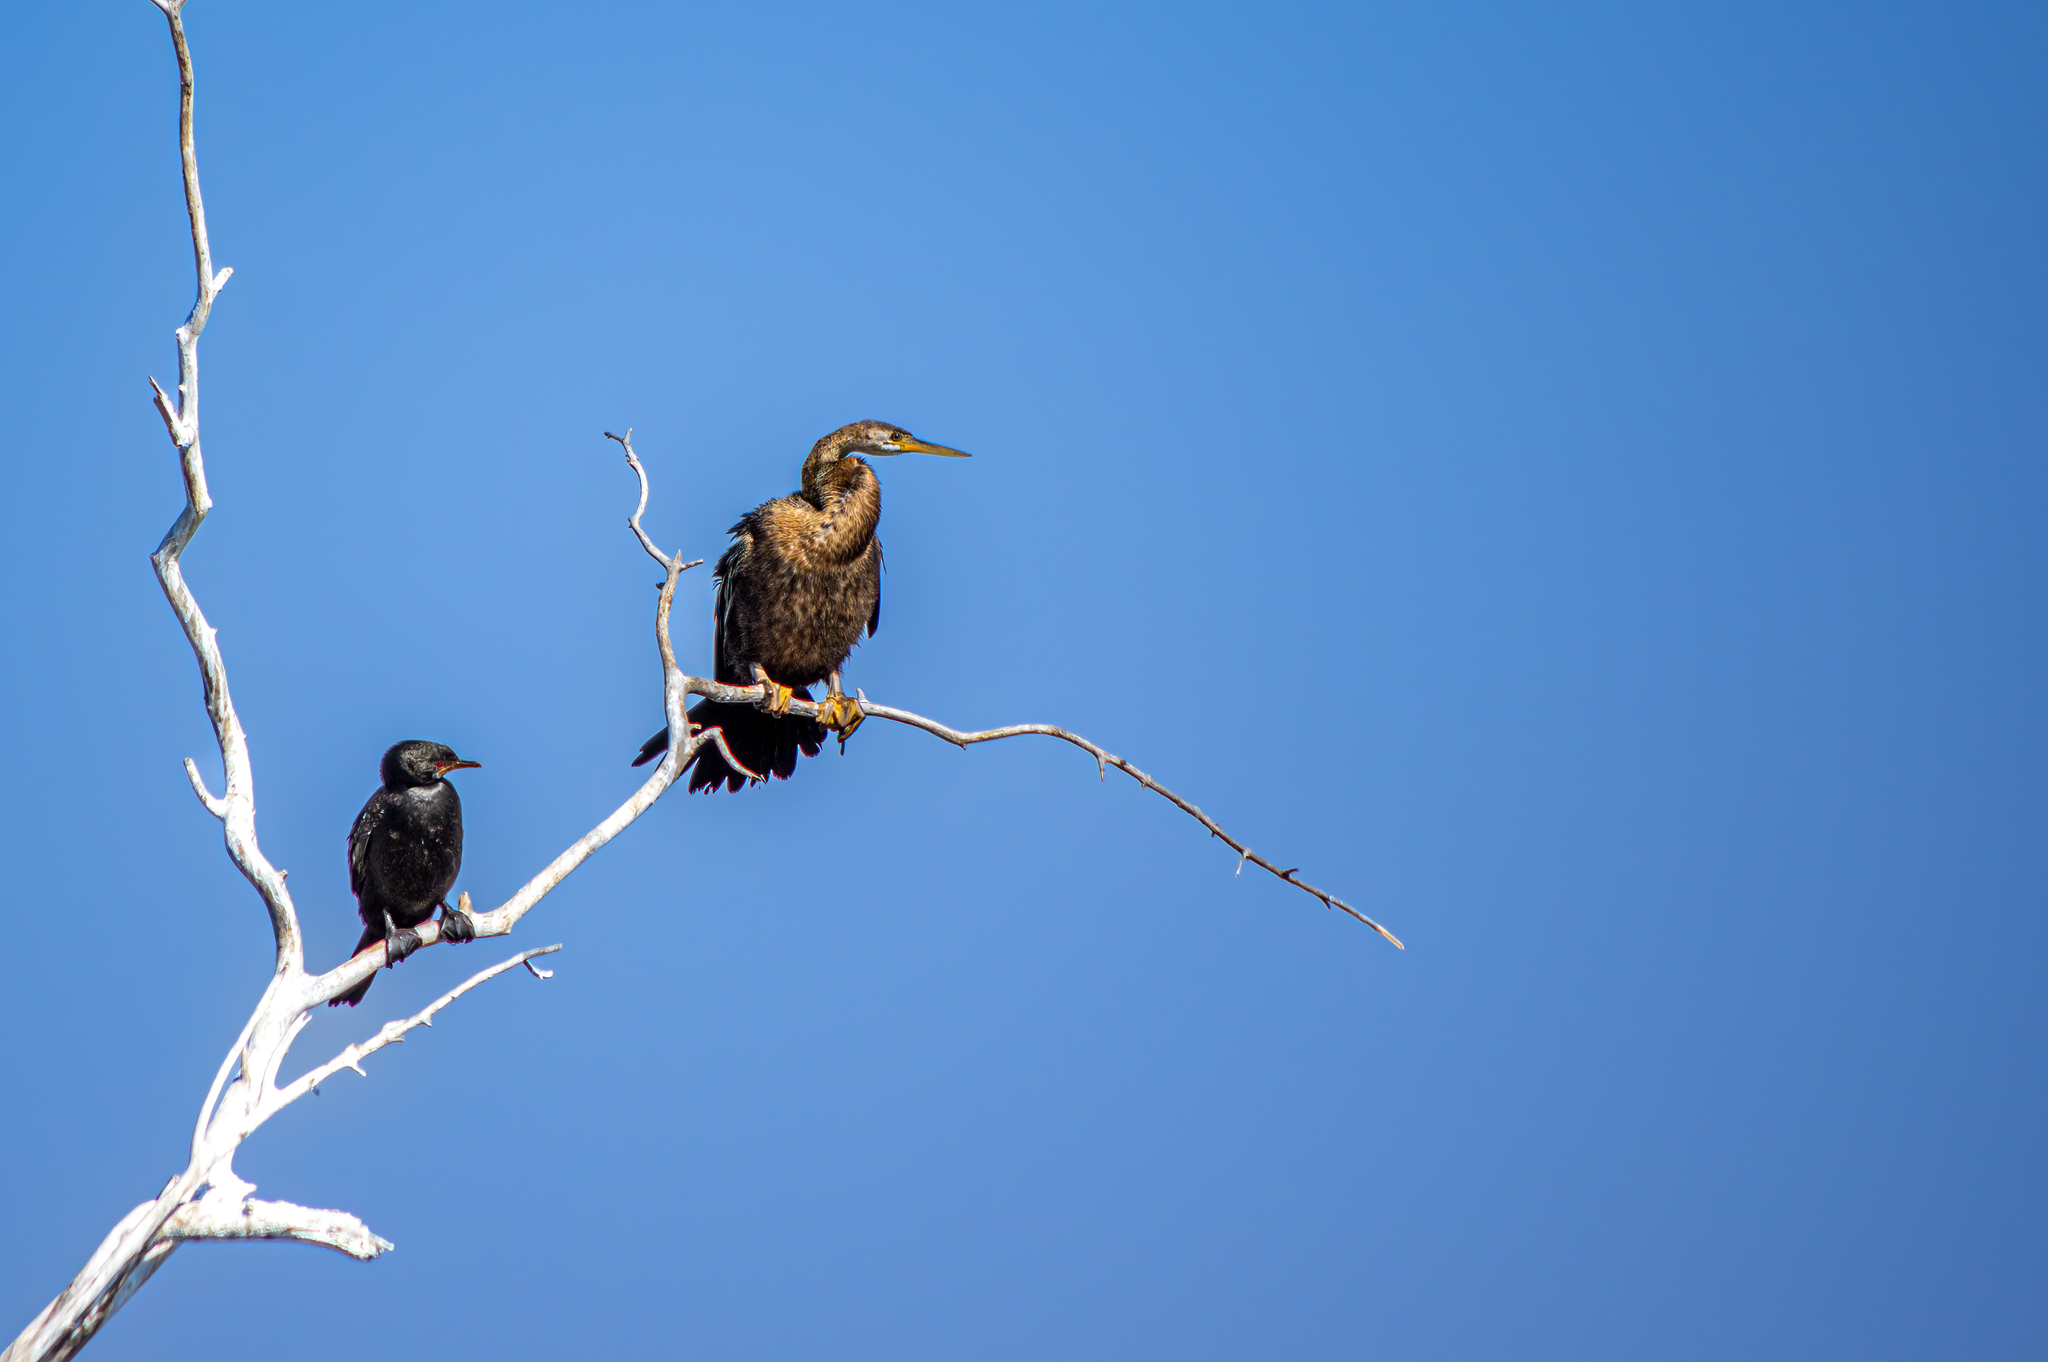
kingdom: Animalia
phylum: Chordata
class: Aves
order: Suliformes
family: Anhingidae
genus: Anhinga
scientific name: Anhinga rufa
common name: African darter
